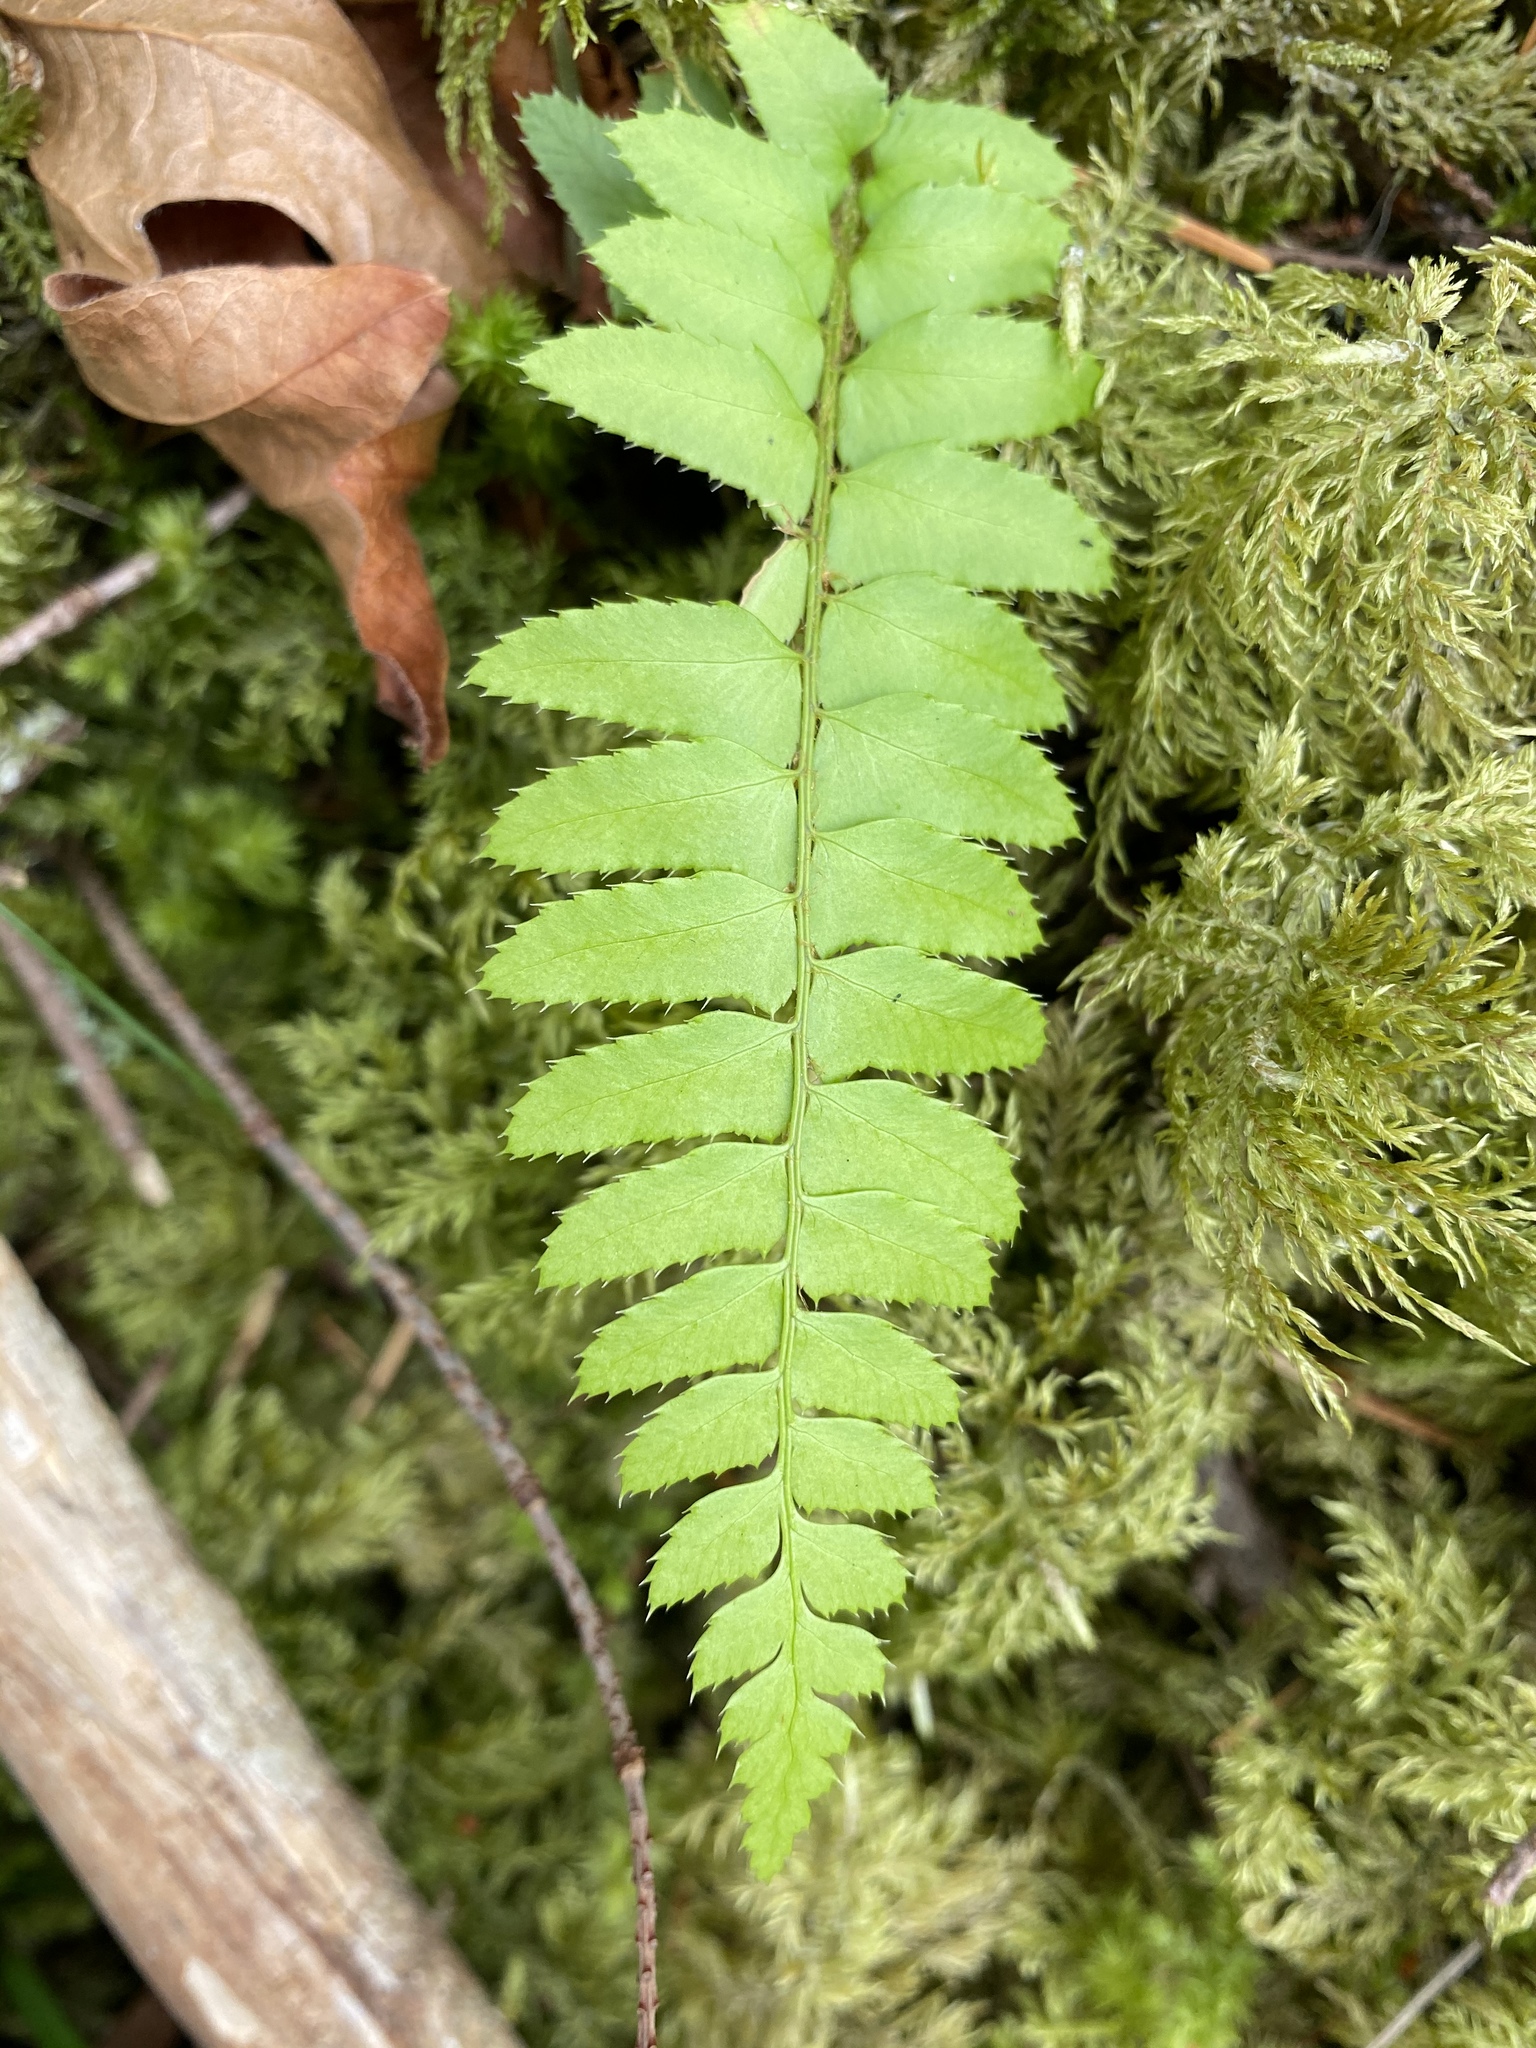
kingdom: Plantae
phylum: Tracheophyta
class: Polypodiopsida
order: Polypodiales
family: Dryopteridaceae
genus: Polystichum
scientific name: Polystichum munitum
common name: Western sword-fern
